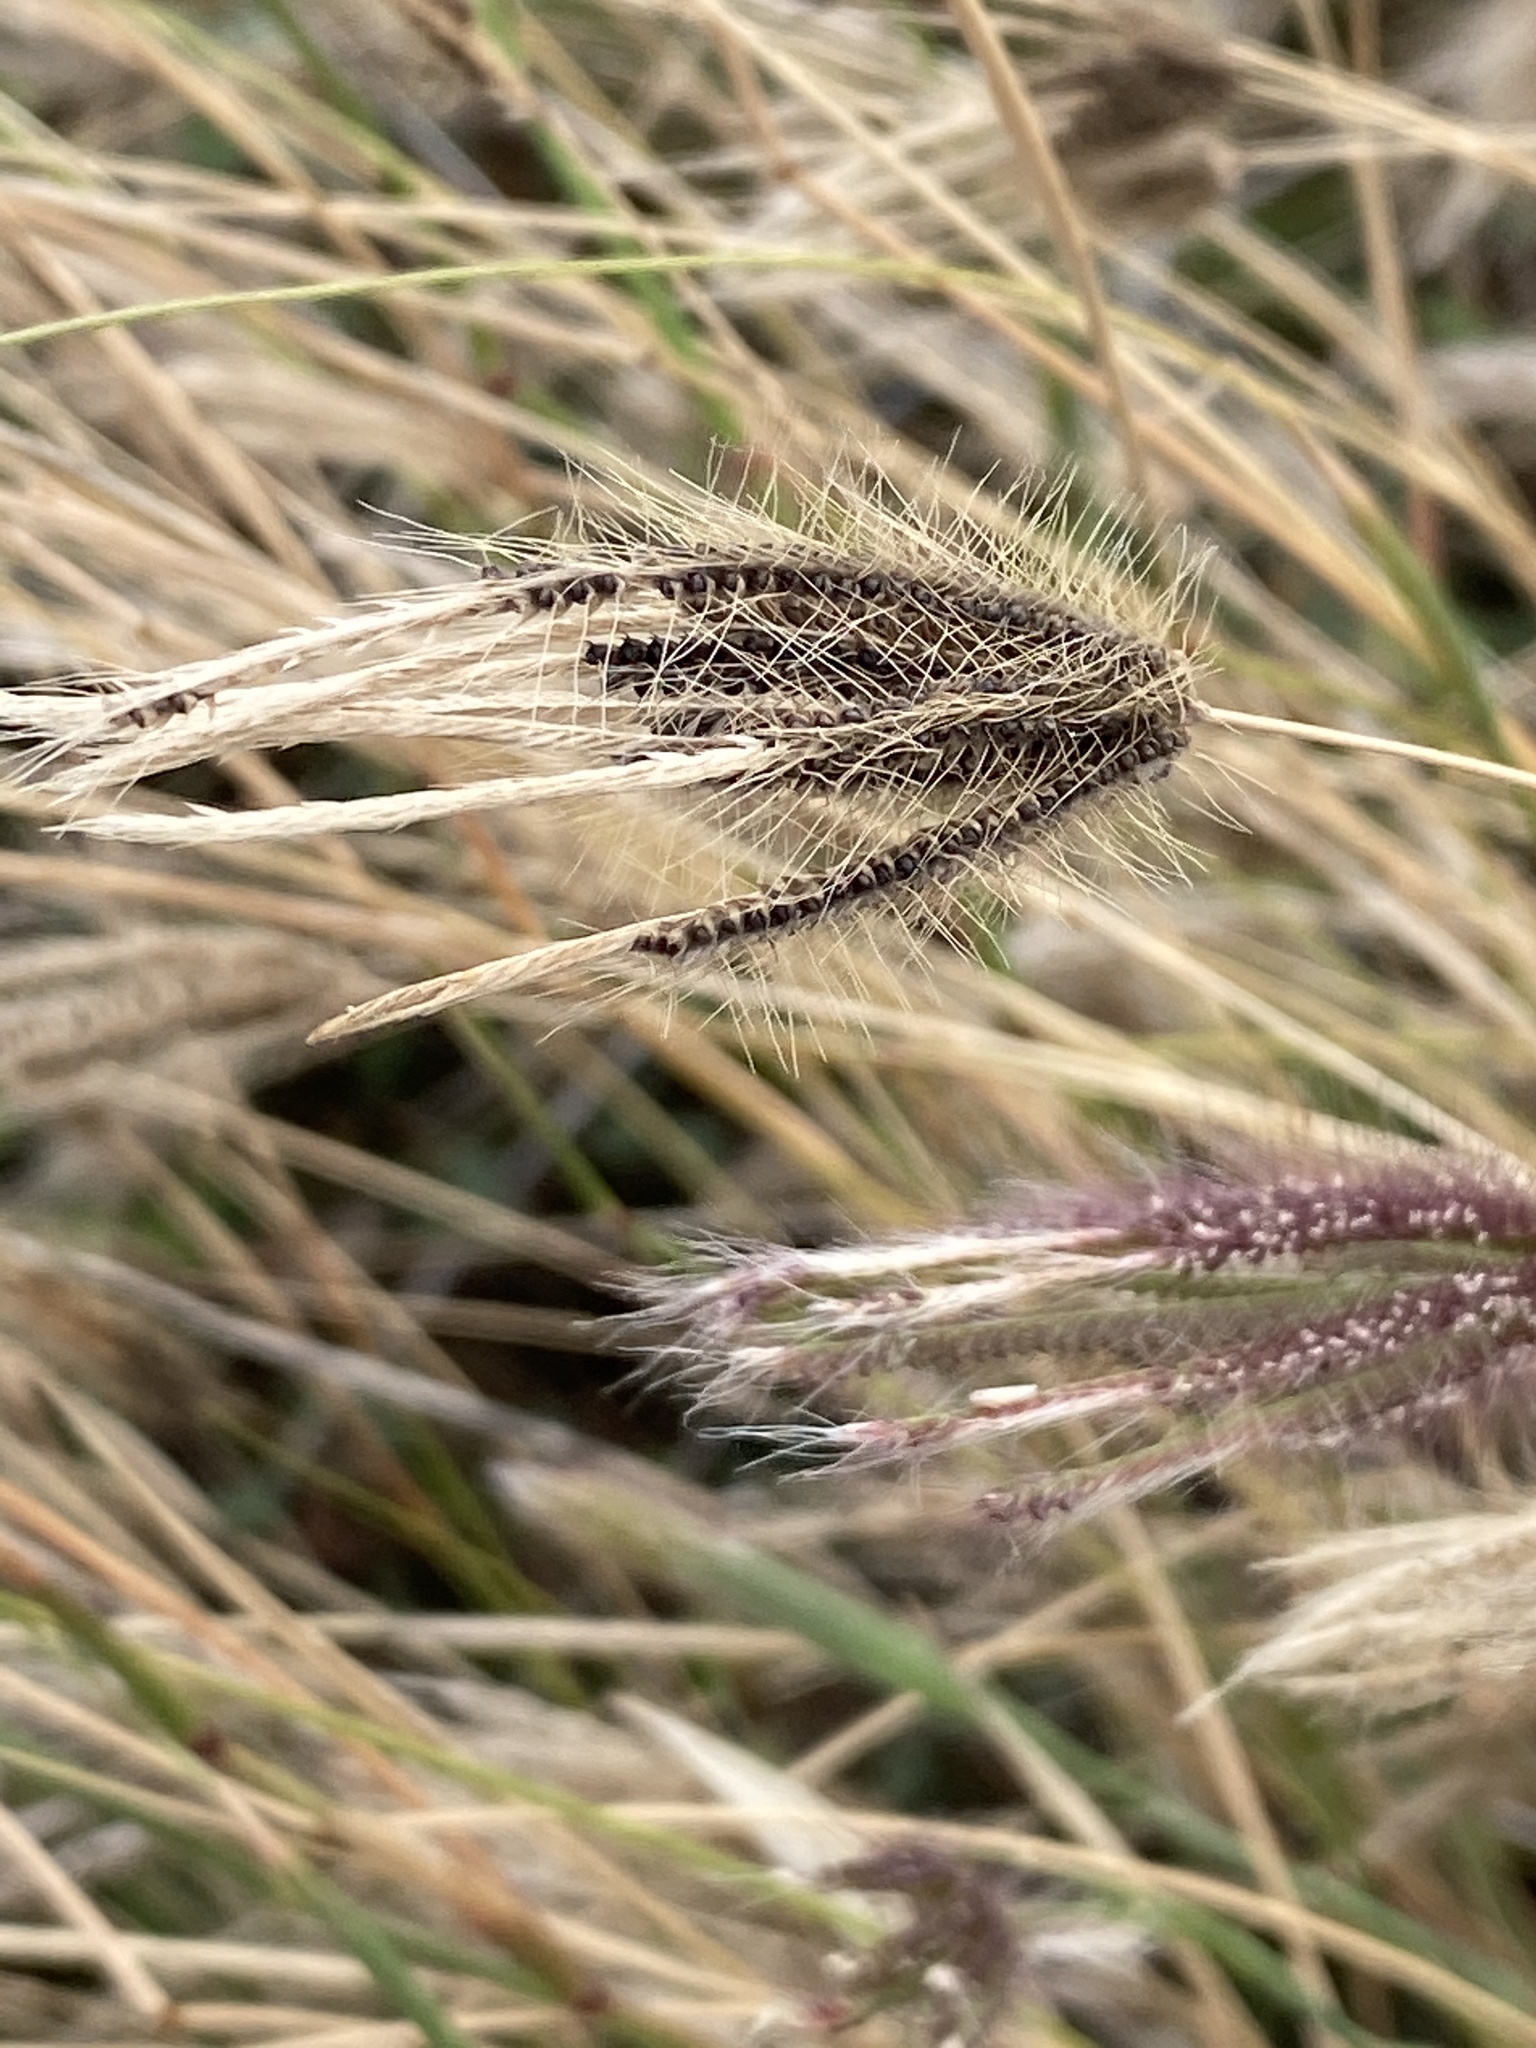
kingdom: Plantae
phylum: Tracheophyta
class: Liliopsida
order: Poales
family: Poaceae
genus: Chloris
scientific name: Chloris barbata
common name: Swollen fingergrass
